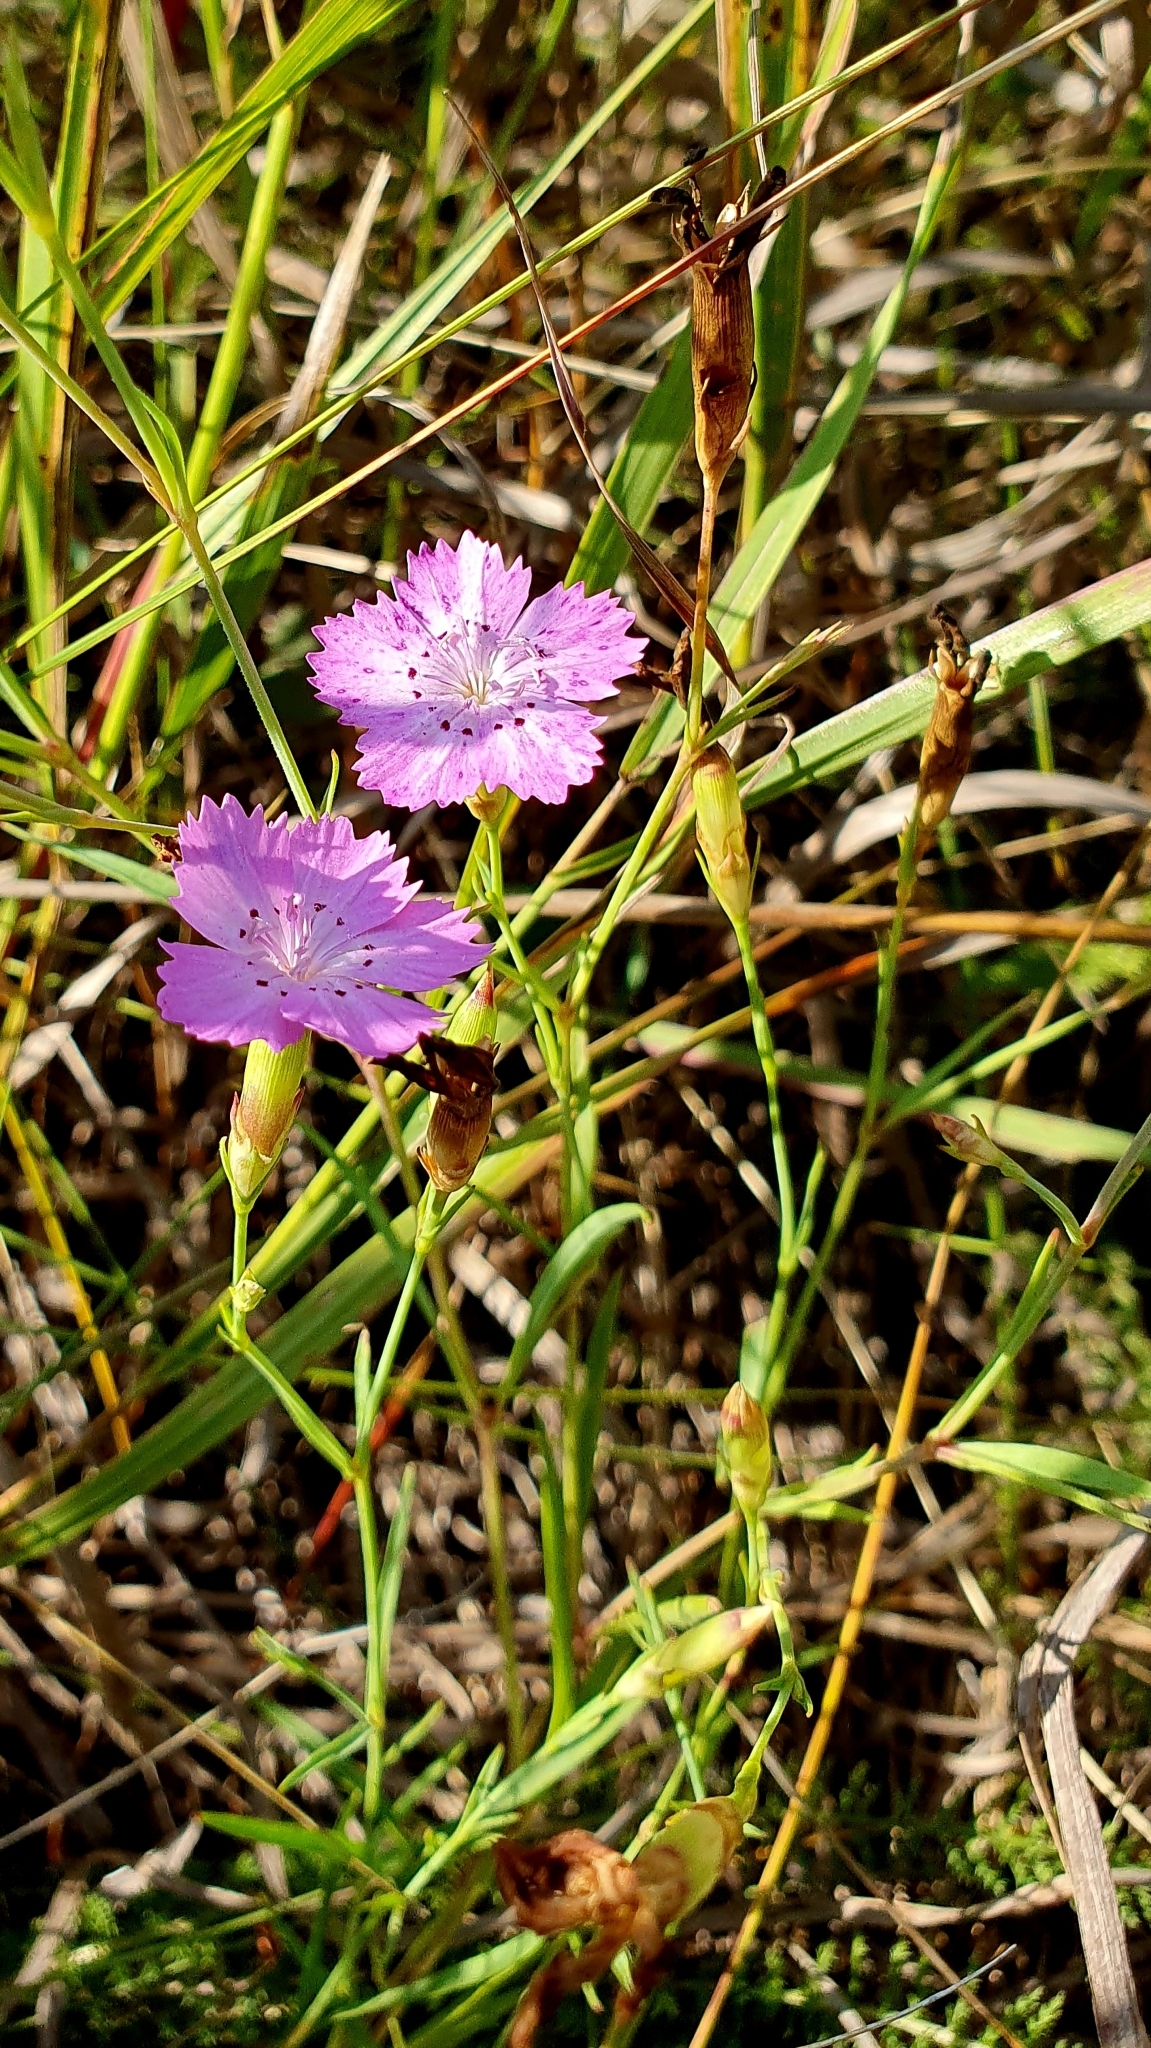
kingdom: Plantae
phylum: Tracheophyta
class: Magnoliopsida
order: Caryophyllales
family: Caryophyllaceae
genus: Dianthus
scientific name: Dianthus chinensis
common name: Rainbow pink
